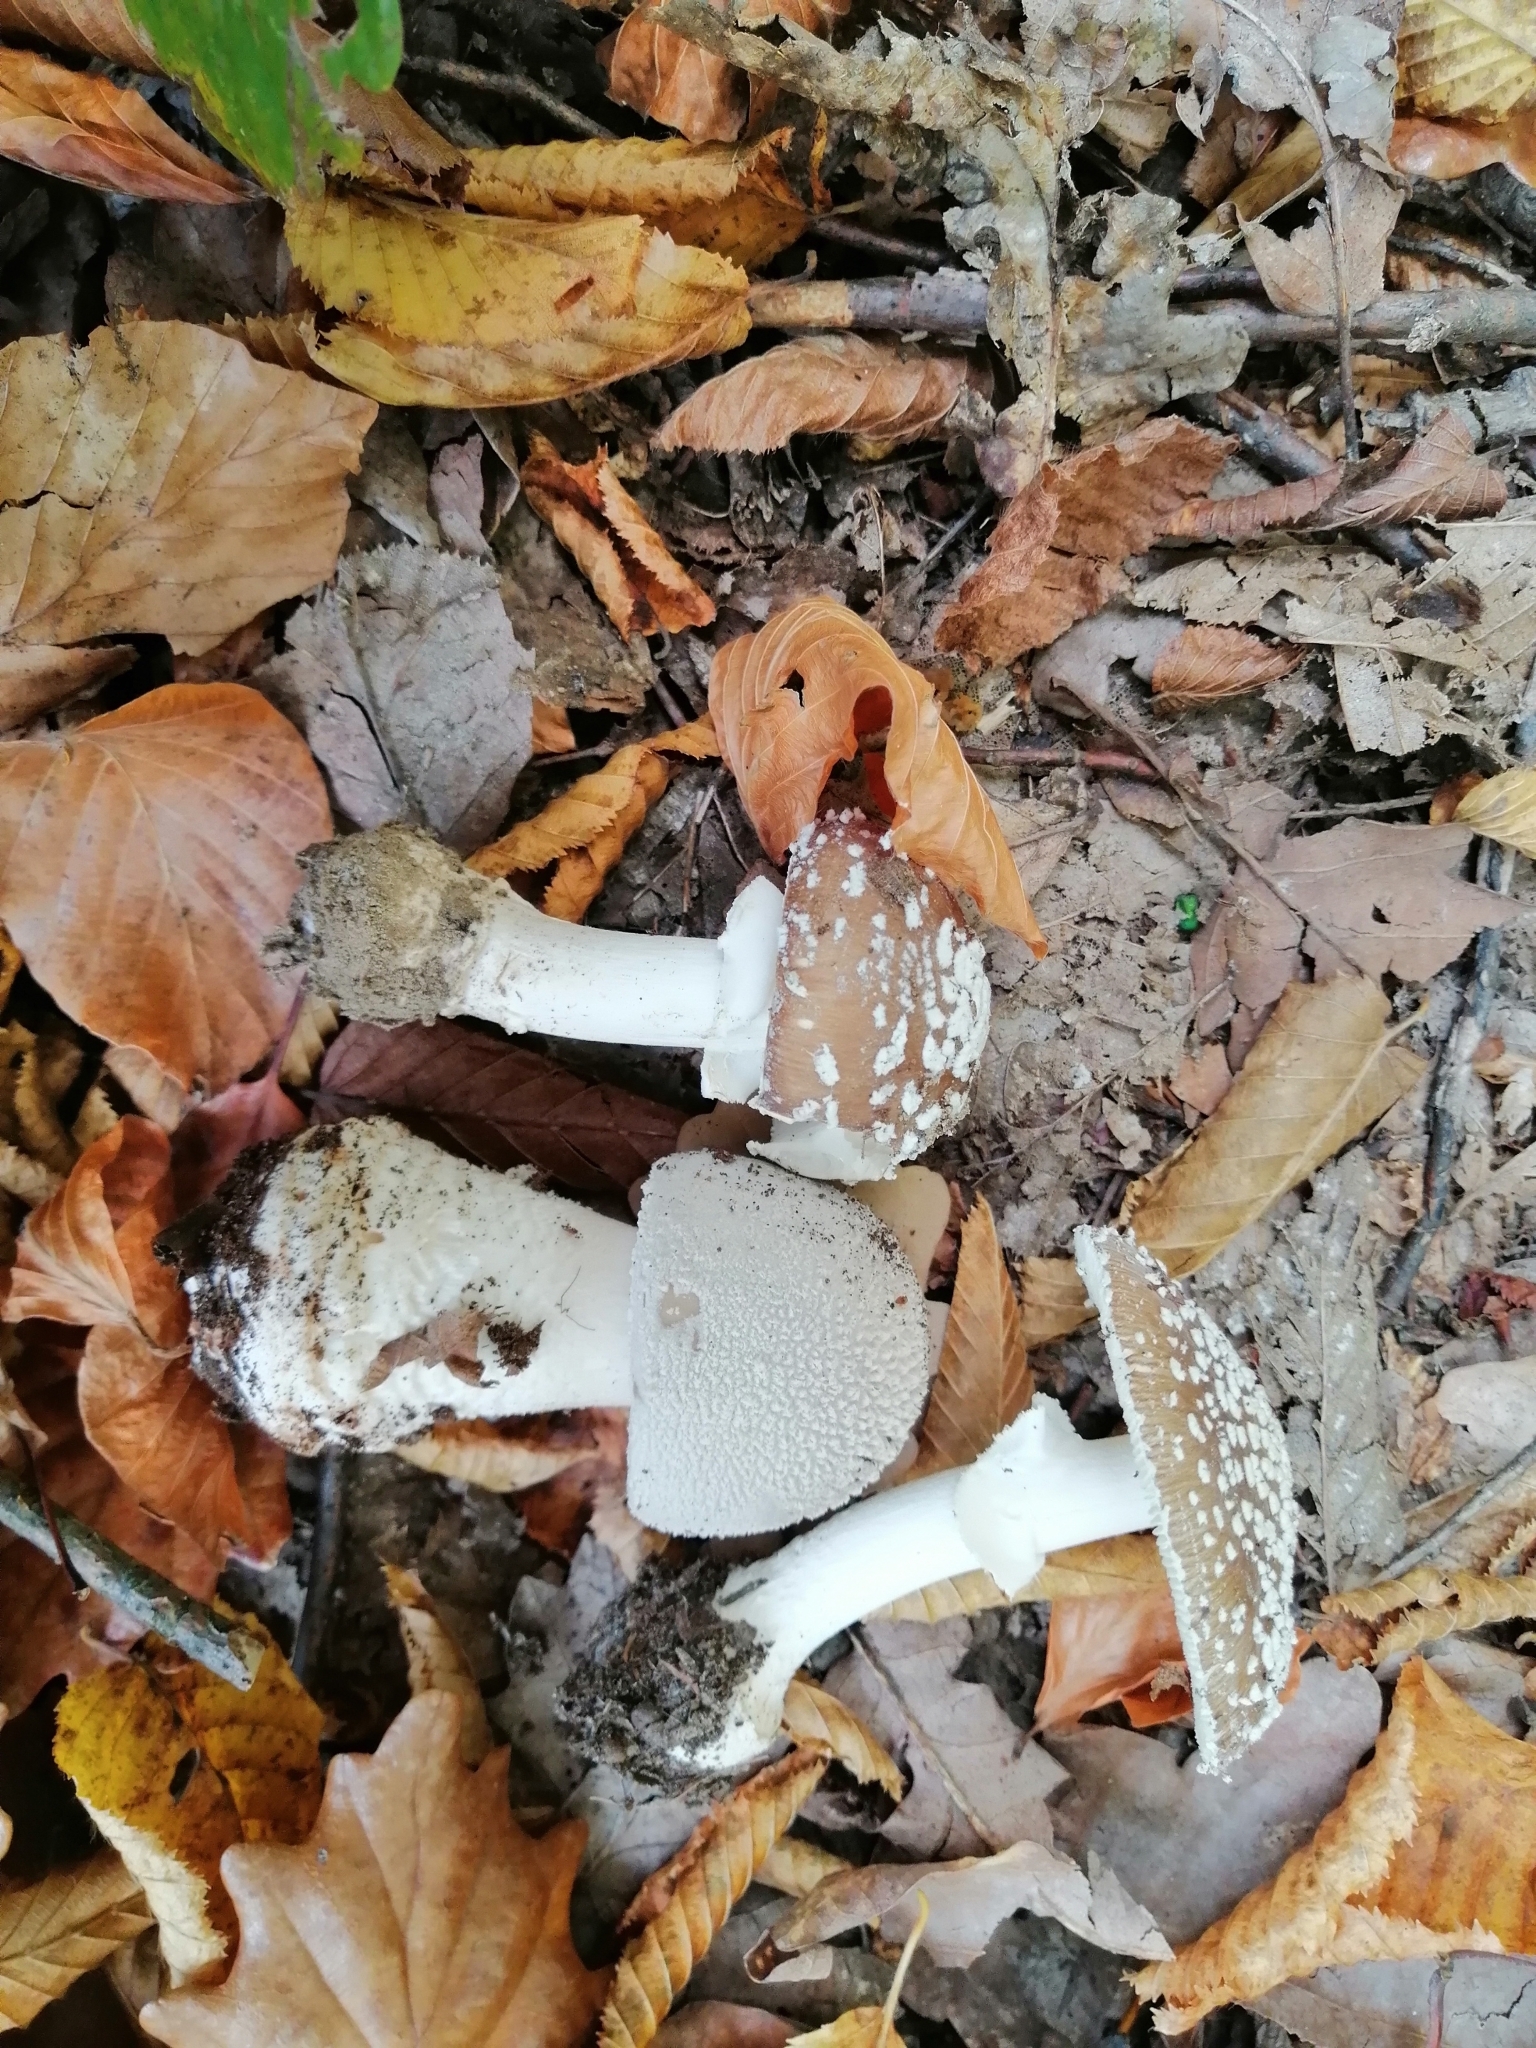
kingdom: Fungi
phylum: Basidiomycota
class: Agaricomycetes
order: Agaricales
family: Amanitaceae
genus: Amanita
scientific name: Amanita pantherina
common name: Panthercap
